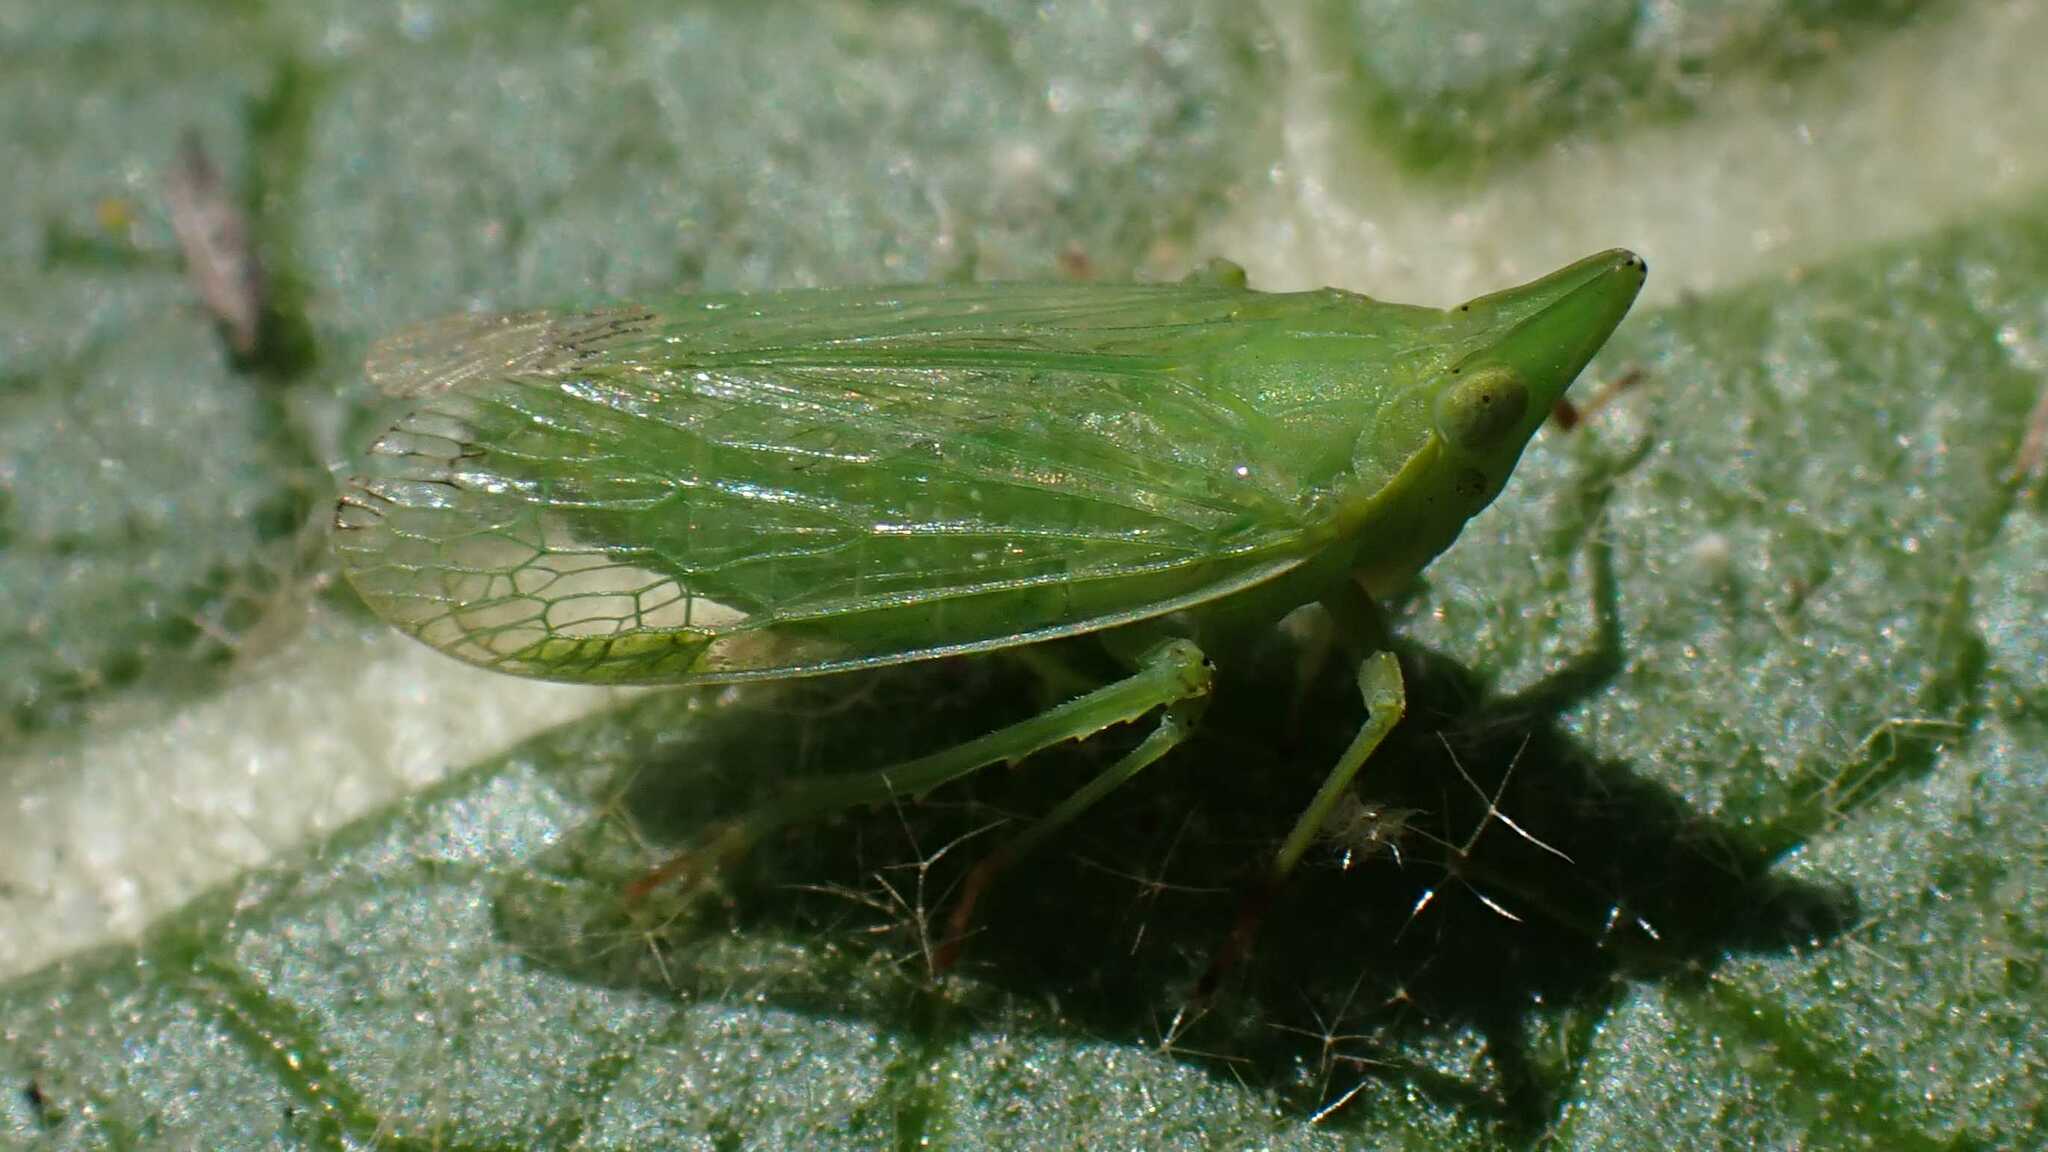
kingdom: Animalia
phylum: Arthropoda
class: Insecta
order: Hemiptera
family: Dictyopharidae
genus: Dictyophara
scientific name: Dictyophara europaea
